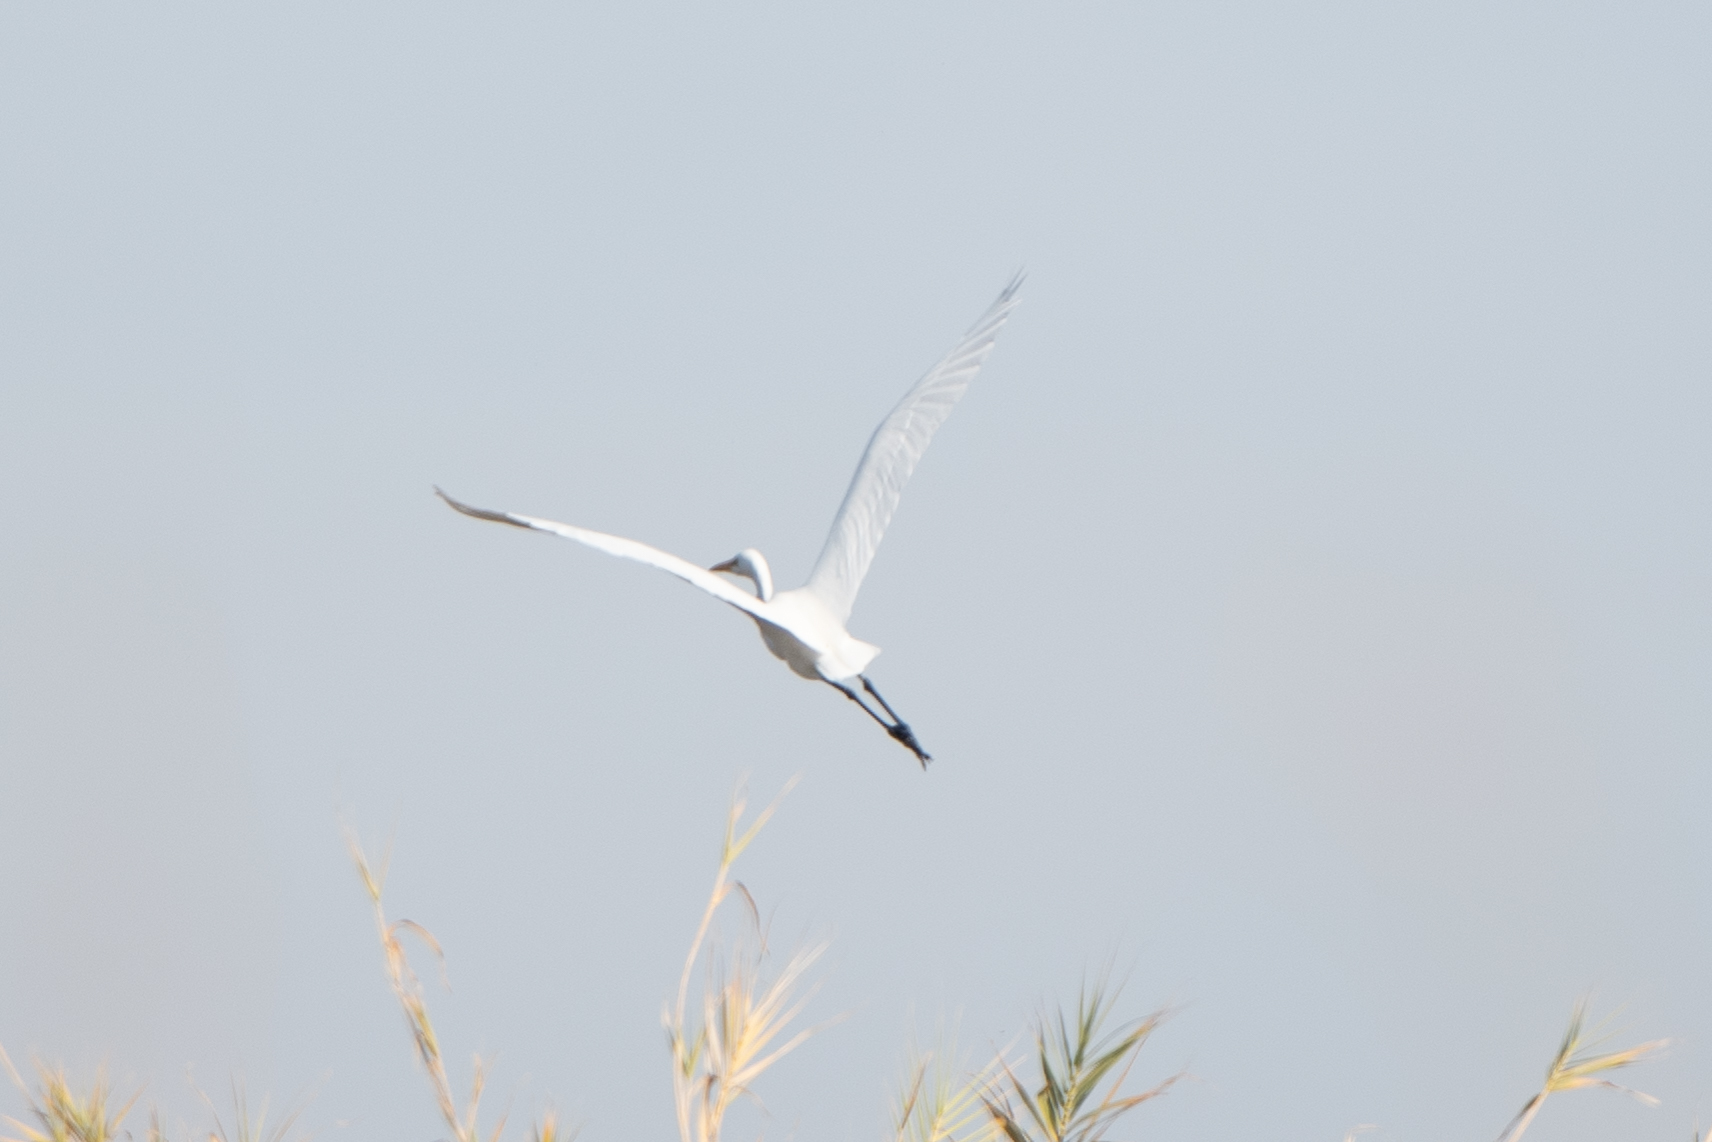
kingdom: Animalia
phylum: Chordata
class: Aves
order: Pelecaniformes
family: Ardeidae
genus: Ardea
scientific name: Ardea alba
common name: Great egret
